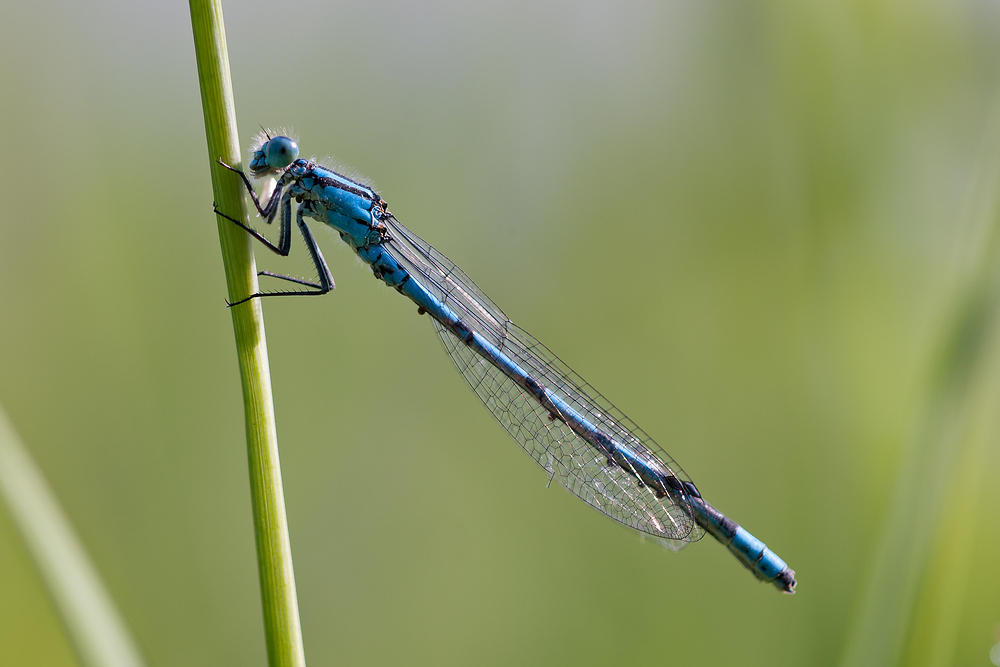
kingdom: Animalia
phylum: Arthropoda
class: Insecta
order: Odonata
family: Coenagrionidae
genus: Enallagma
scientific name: Enallagma cyathigerum
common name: Common blue damselfly
